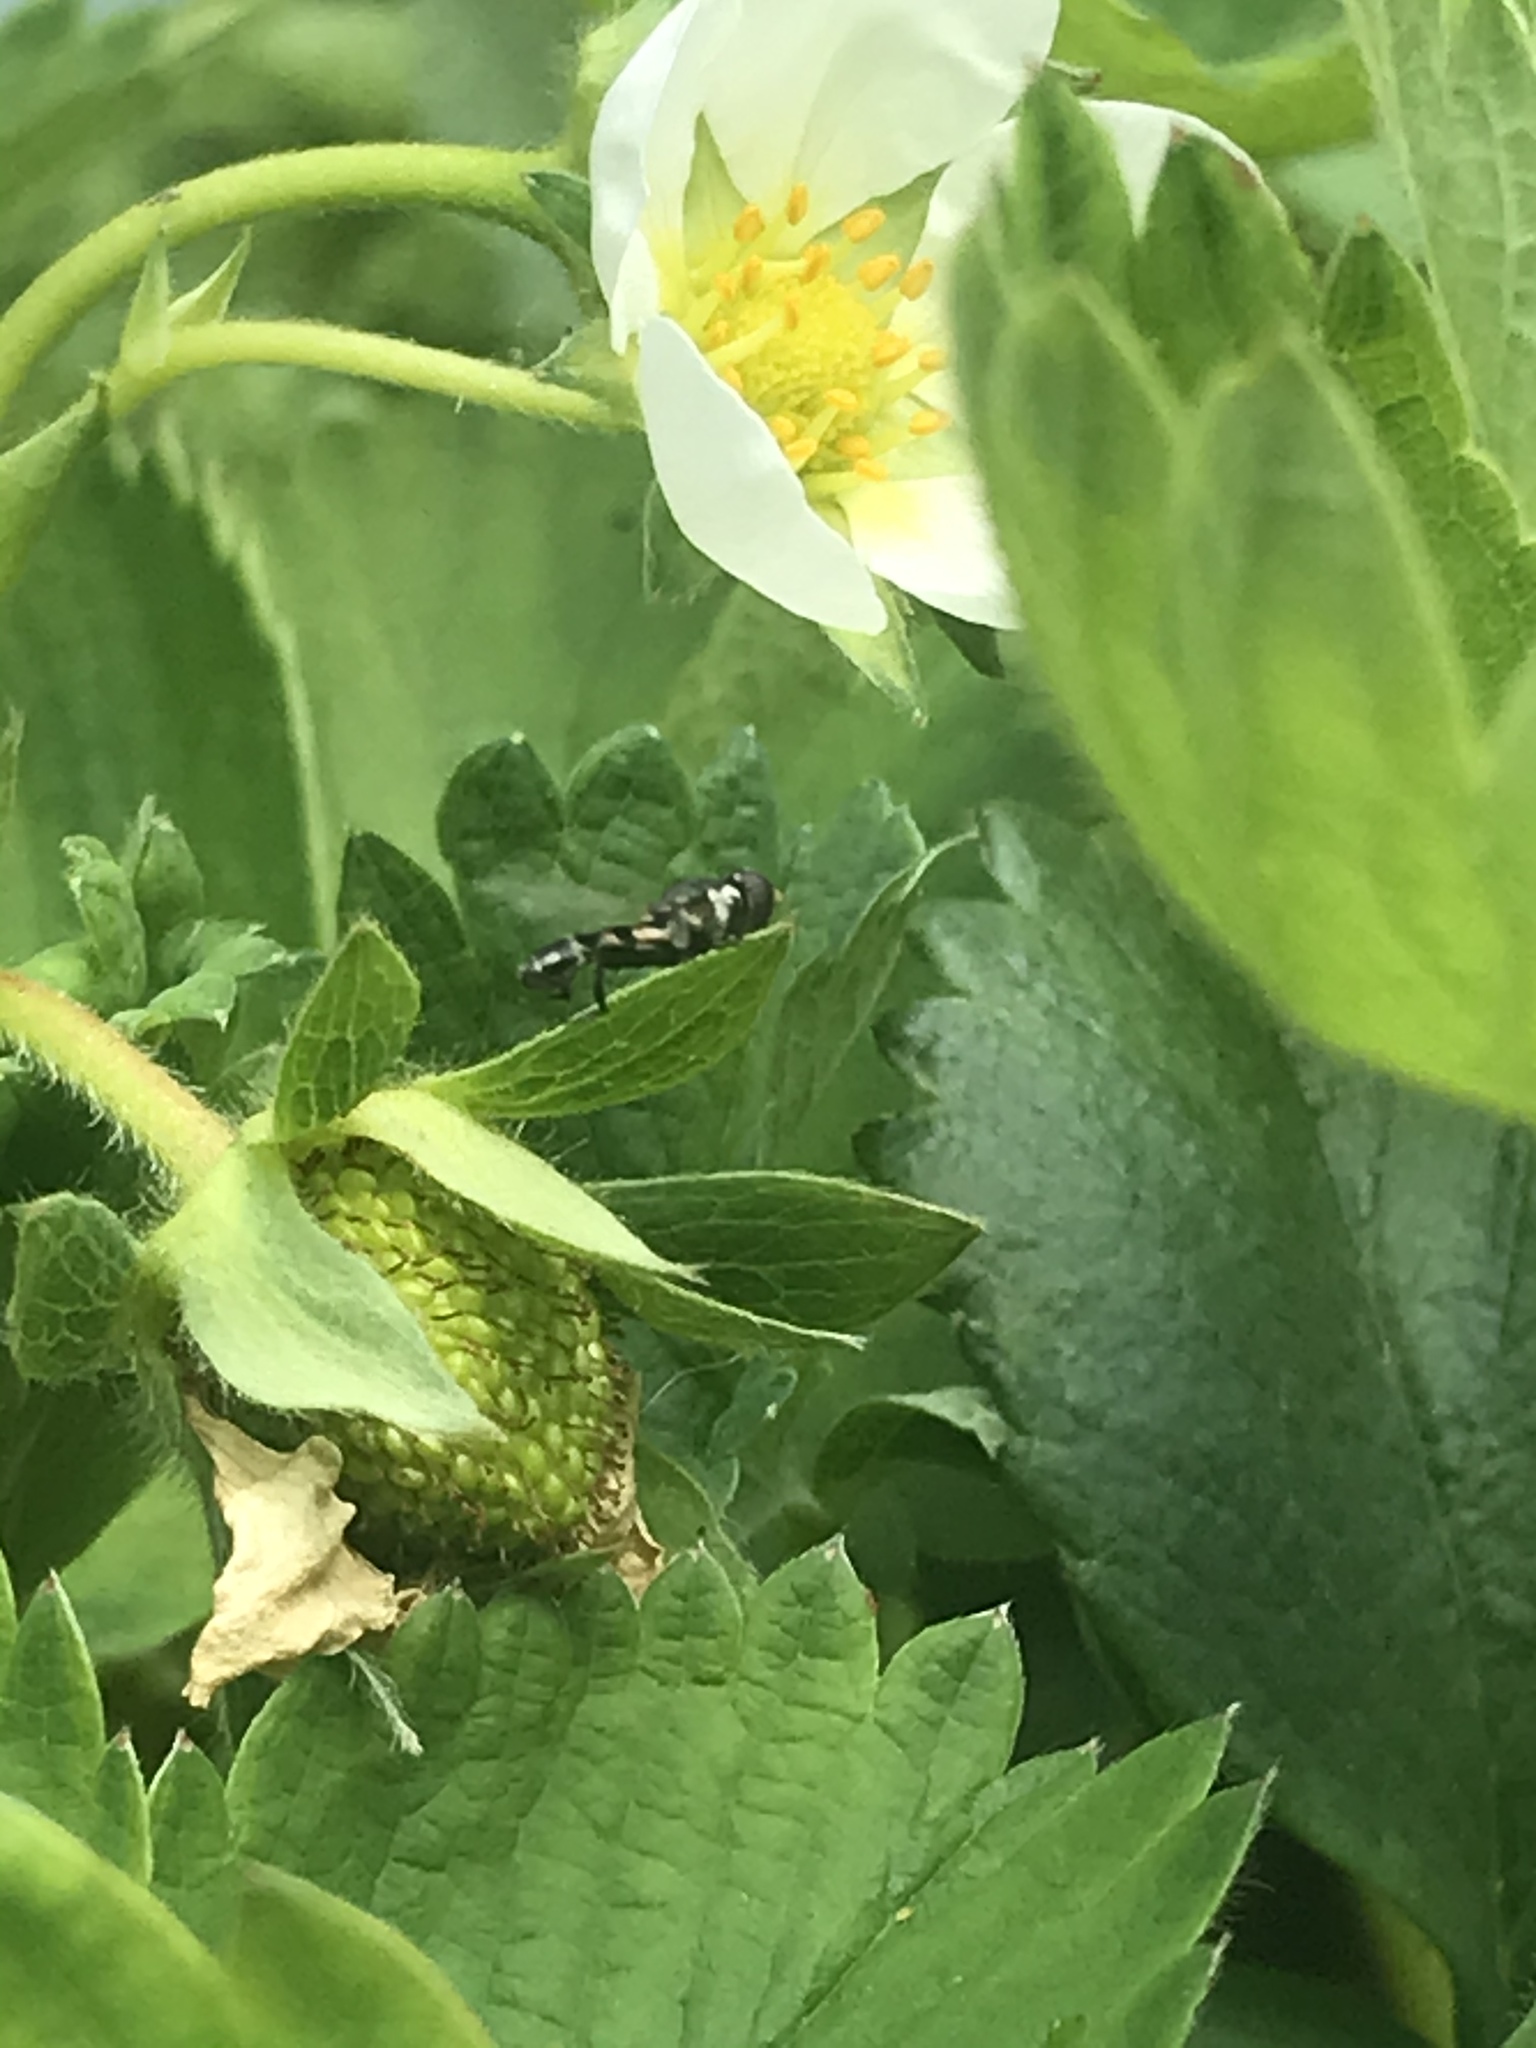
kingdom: Animalia
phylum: Arthropoda
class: Insecta
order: Diptera
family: Syrphidae
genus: Syritta
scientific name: Syritta pipiens
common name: Hover fly
